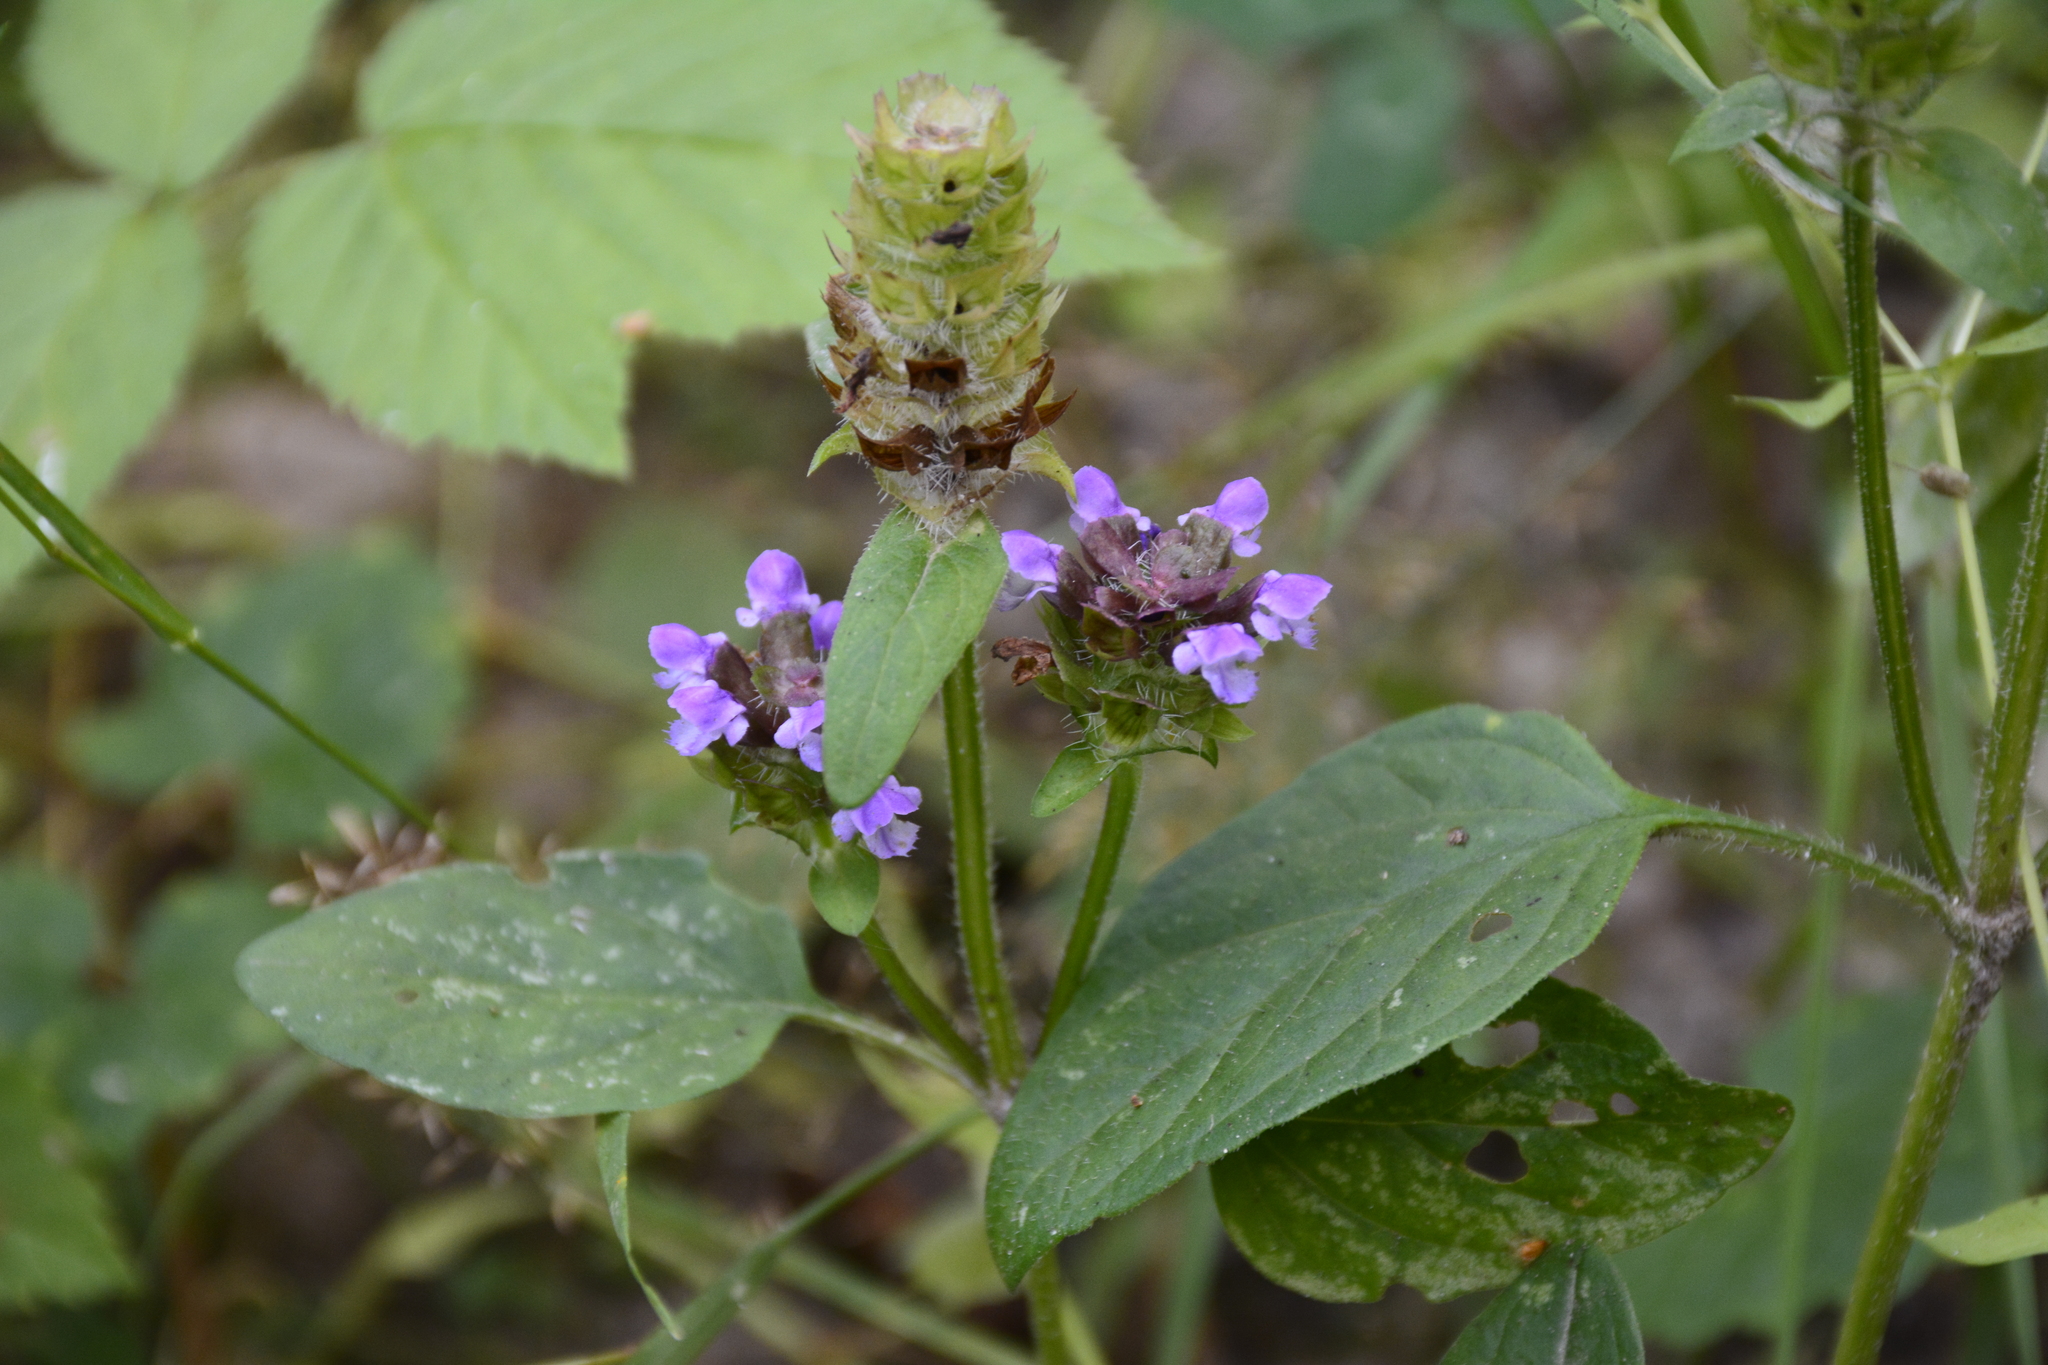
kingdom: Plantae
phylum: Tracheophyta
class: Magnoliopsida
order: Lamiales
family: Lamiaceae
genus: Prunella
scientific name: Prunella vulgaris
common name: Heal-all
